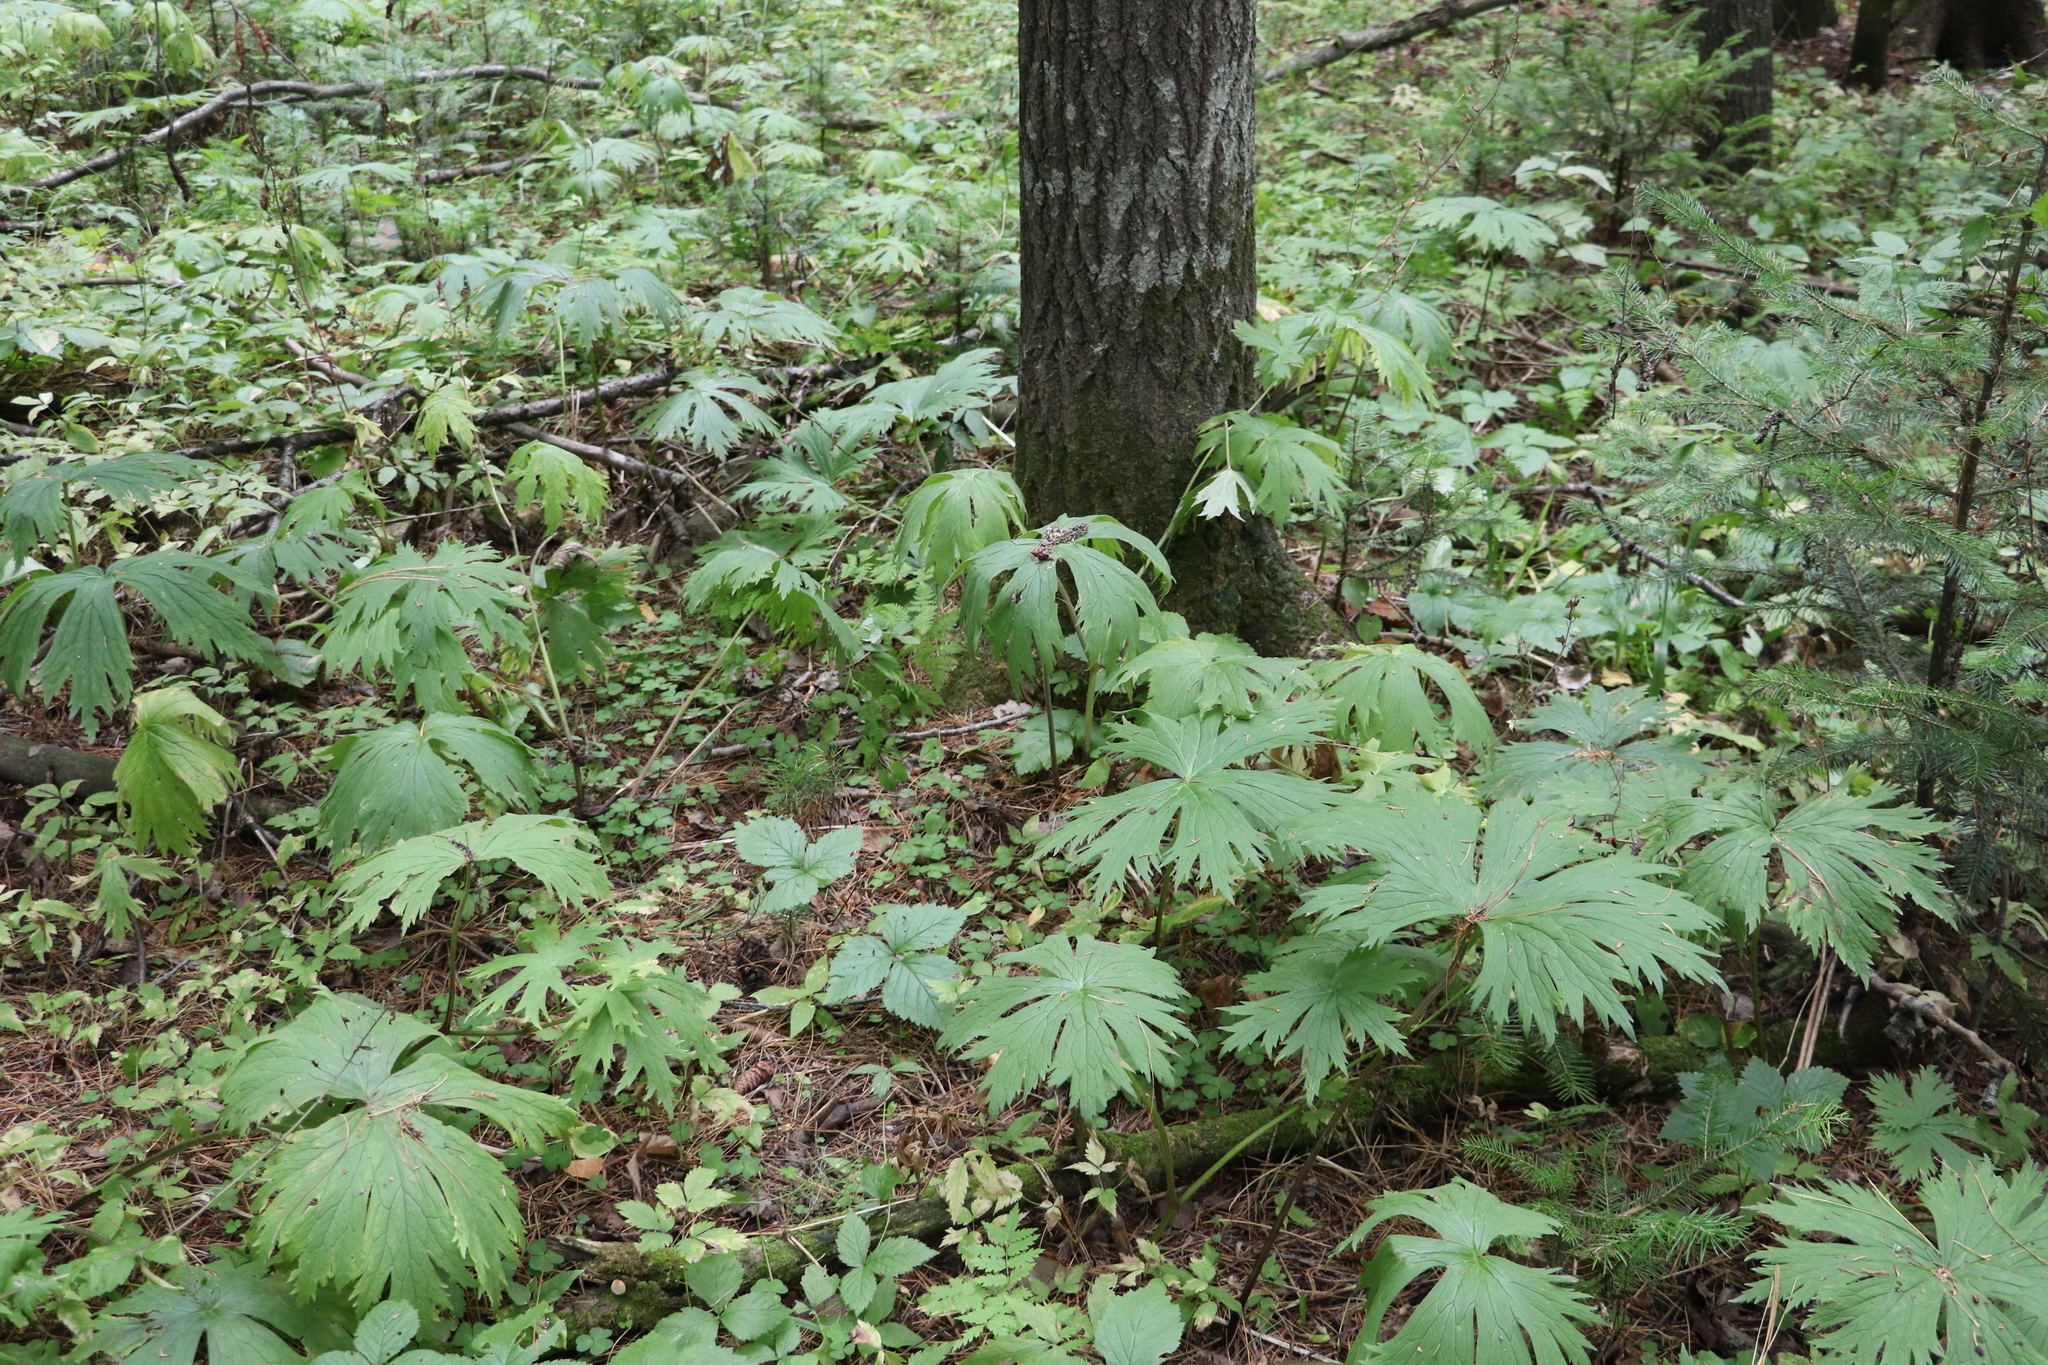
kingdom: Plantae
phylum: Tracheophyta
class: Magnoliopsida
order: Ranunculales
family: Ranunculaceae
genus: Aconitum
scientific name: Aconitum septentrionale
